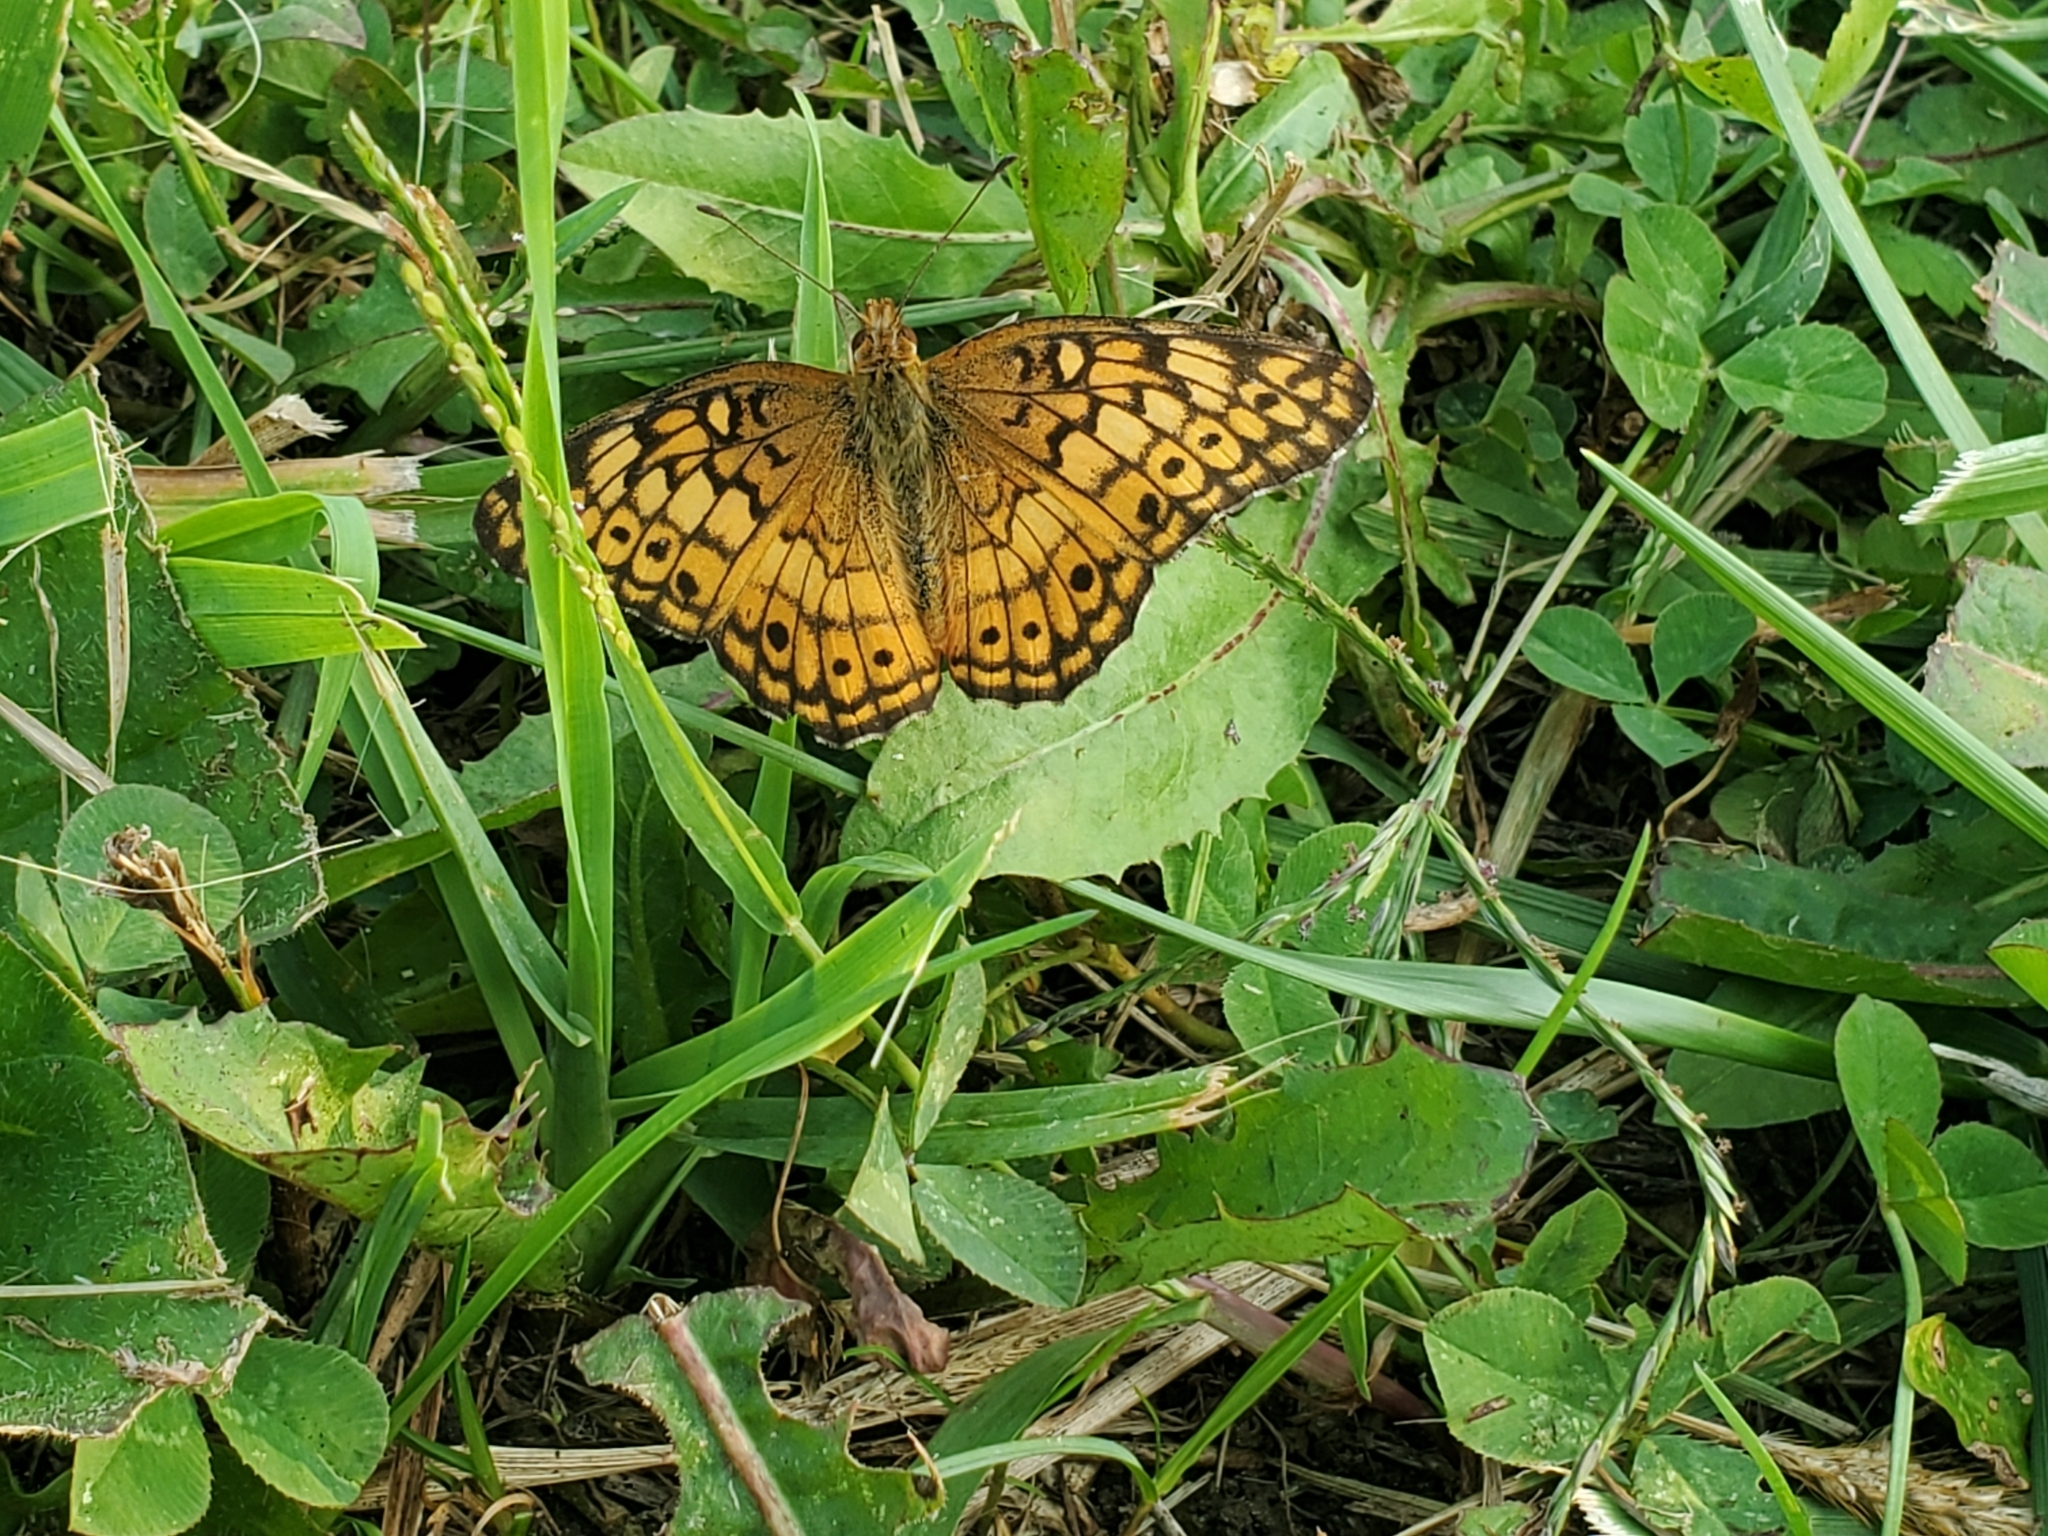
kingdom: Animalia
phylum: Arthropoda
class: Insecta
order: Lepidoptera
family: Nymphalidae
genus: Euptoieta
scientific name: Euptoieta claudia
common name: Variegated fritillary
